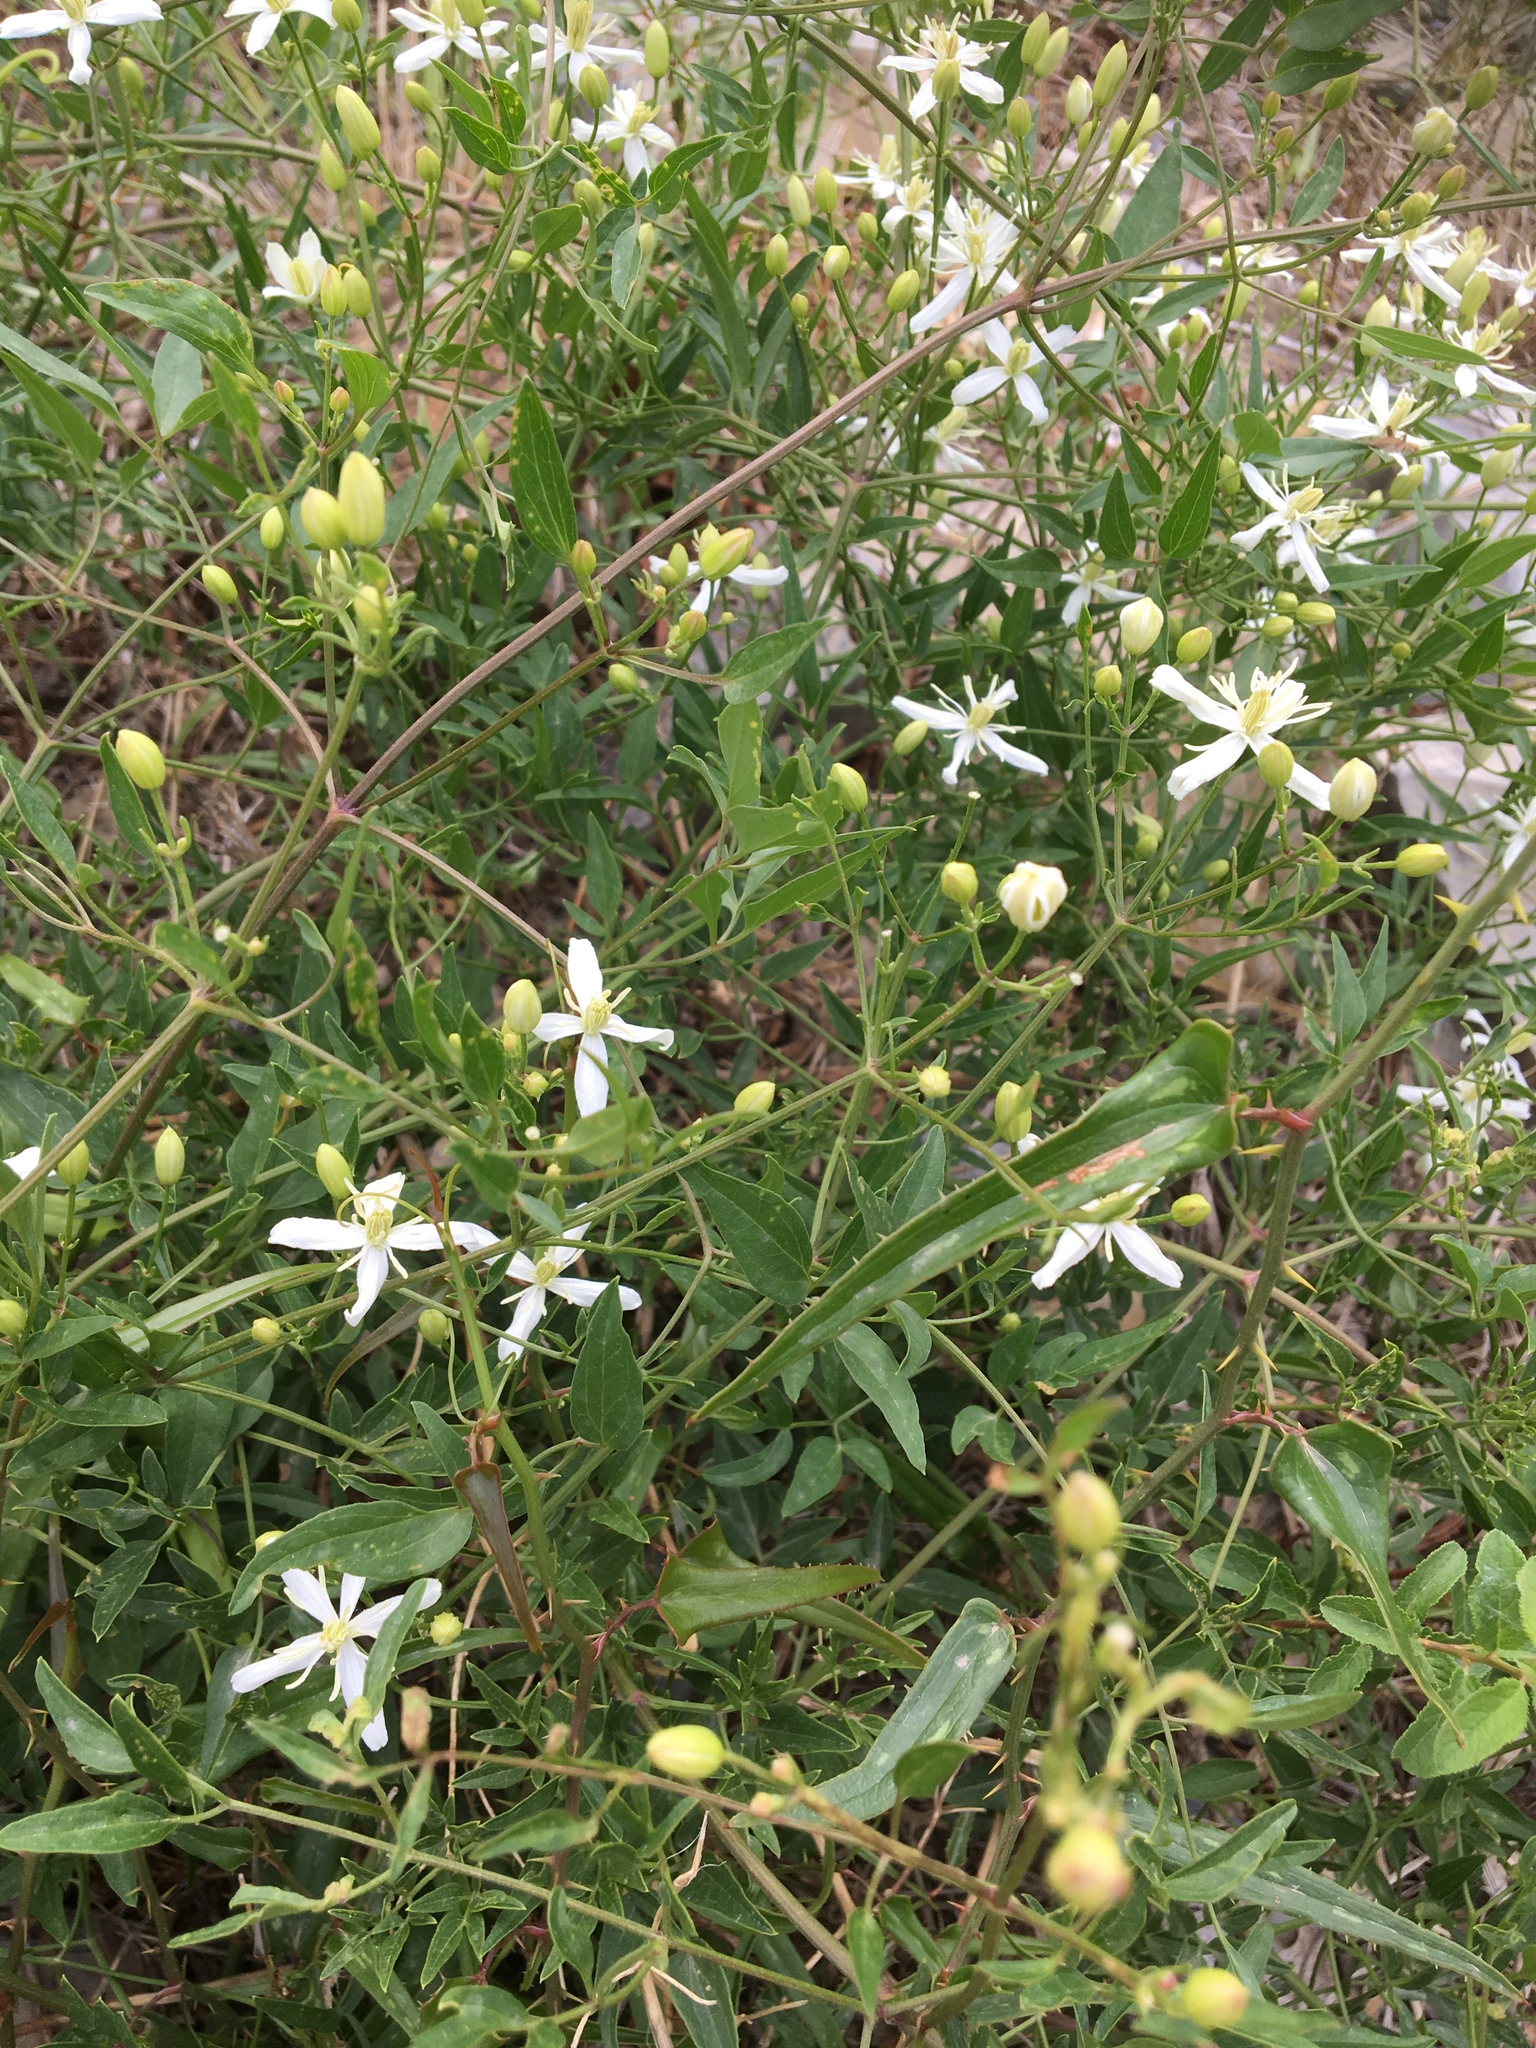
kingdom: Plantae
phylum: Tracheophyta
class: Magnoliopsida
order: Ranunculales
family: Ranunculaceae
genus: Clematis
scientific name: Clematis flammula
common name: Virgin's-bower
